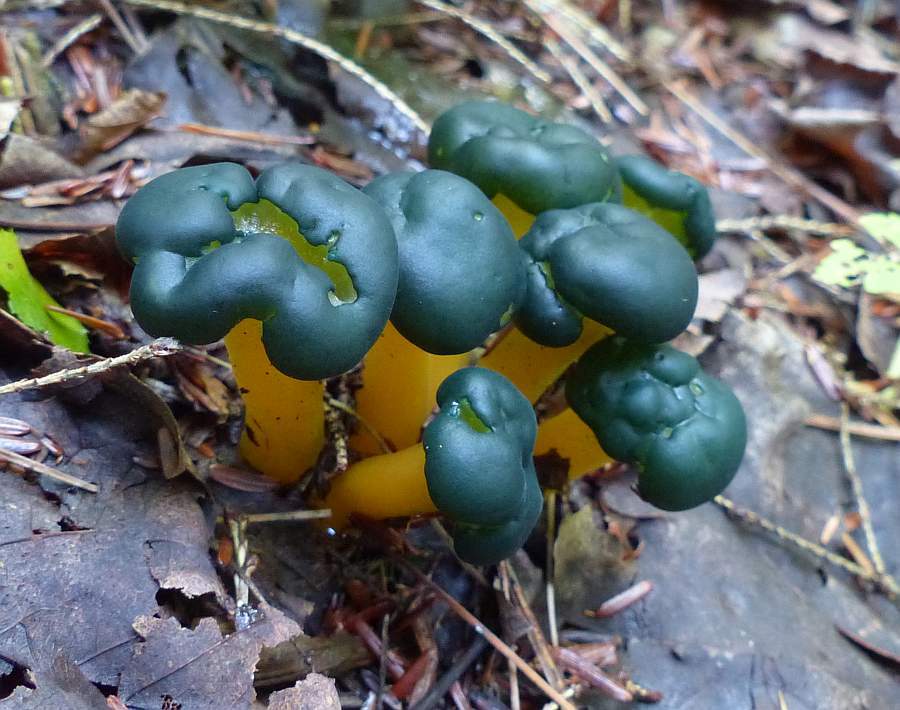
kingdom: Fungi
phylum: Ascomycota
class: Leotiomycetes
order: Leotiales
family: Leotiaceae
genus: Leotia
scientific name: Leotia lubrica
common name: Jellybaby
